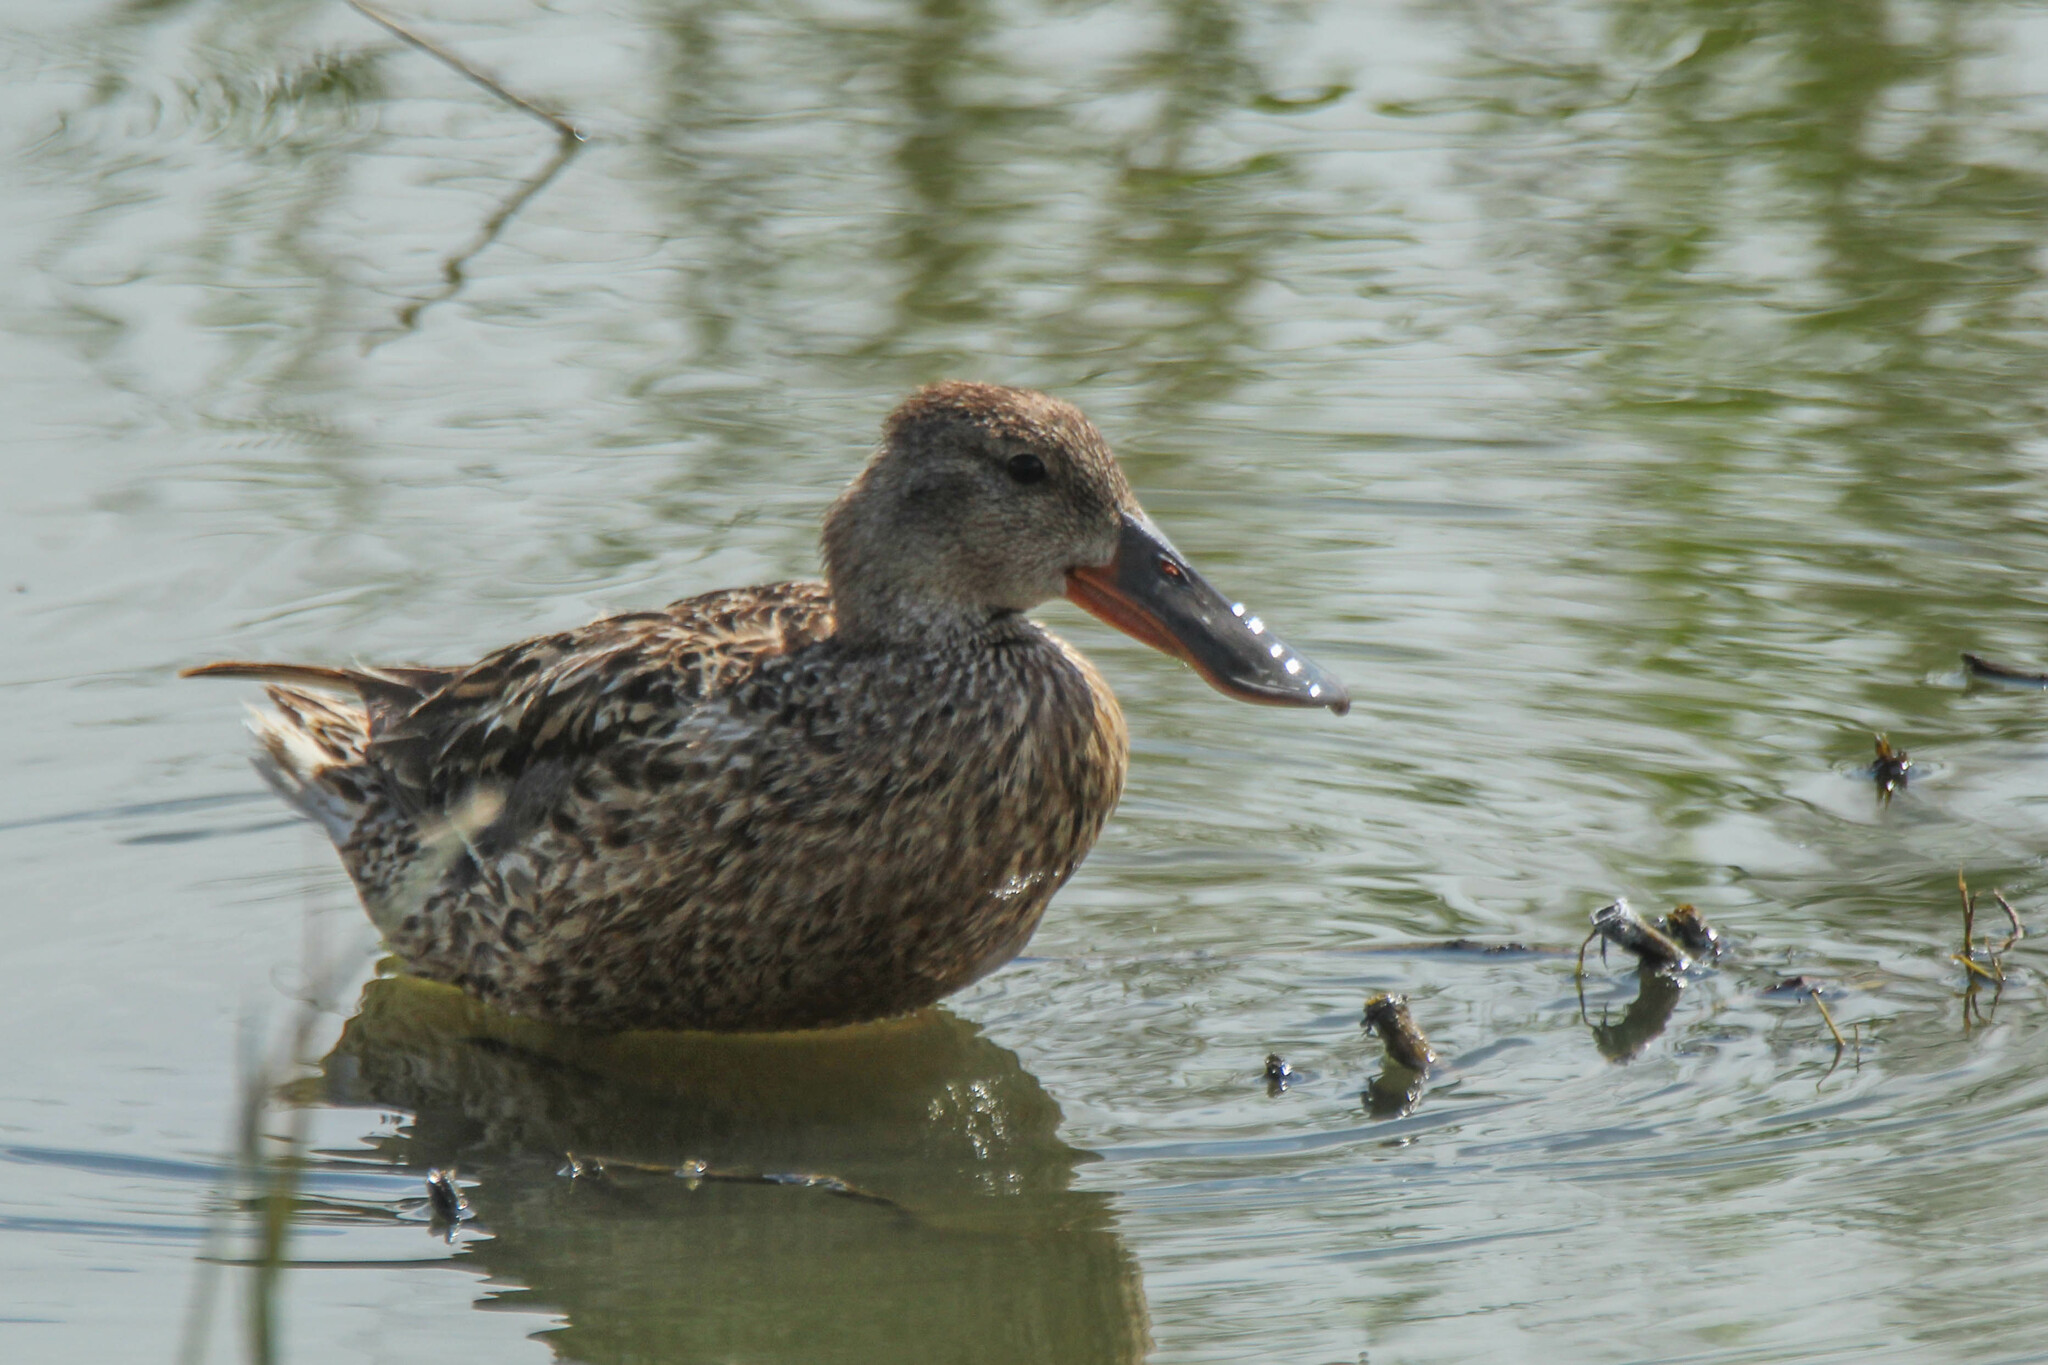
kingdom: Animalia
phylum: Chordata
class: Aves
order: Anseriformes
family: Anatidae
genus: Spatula
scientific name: Spatula clypeata
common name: Northern shoveler
